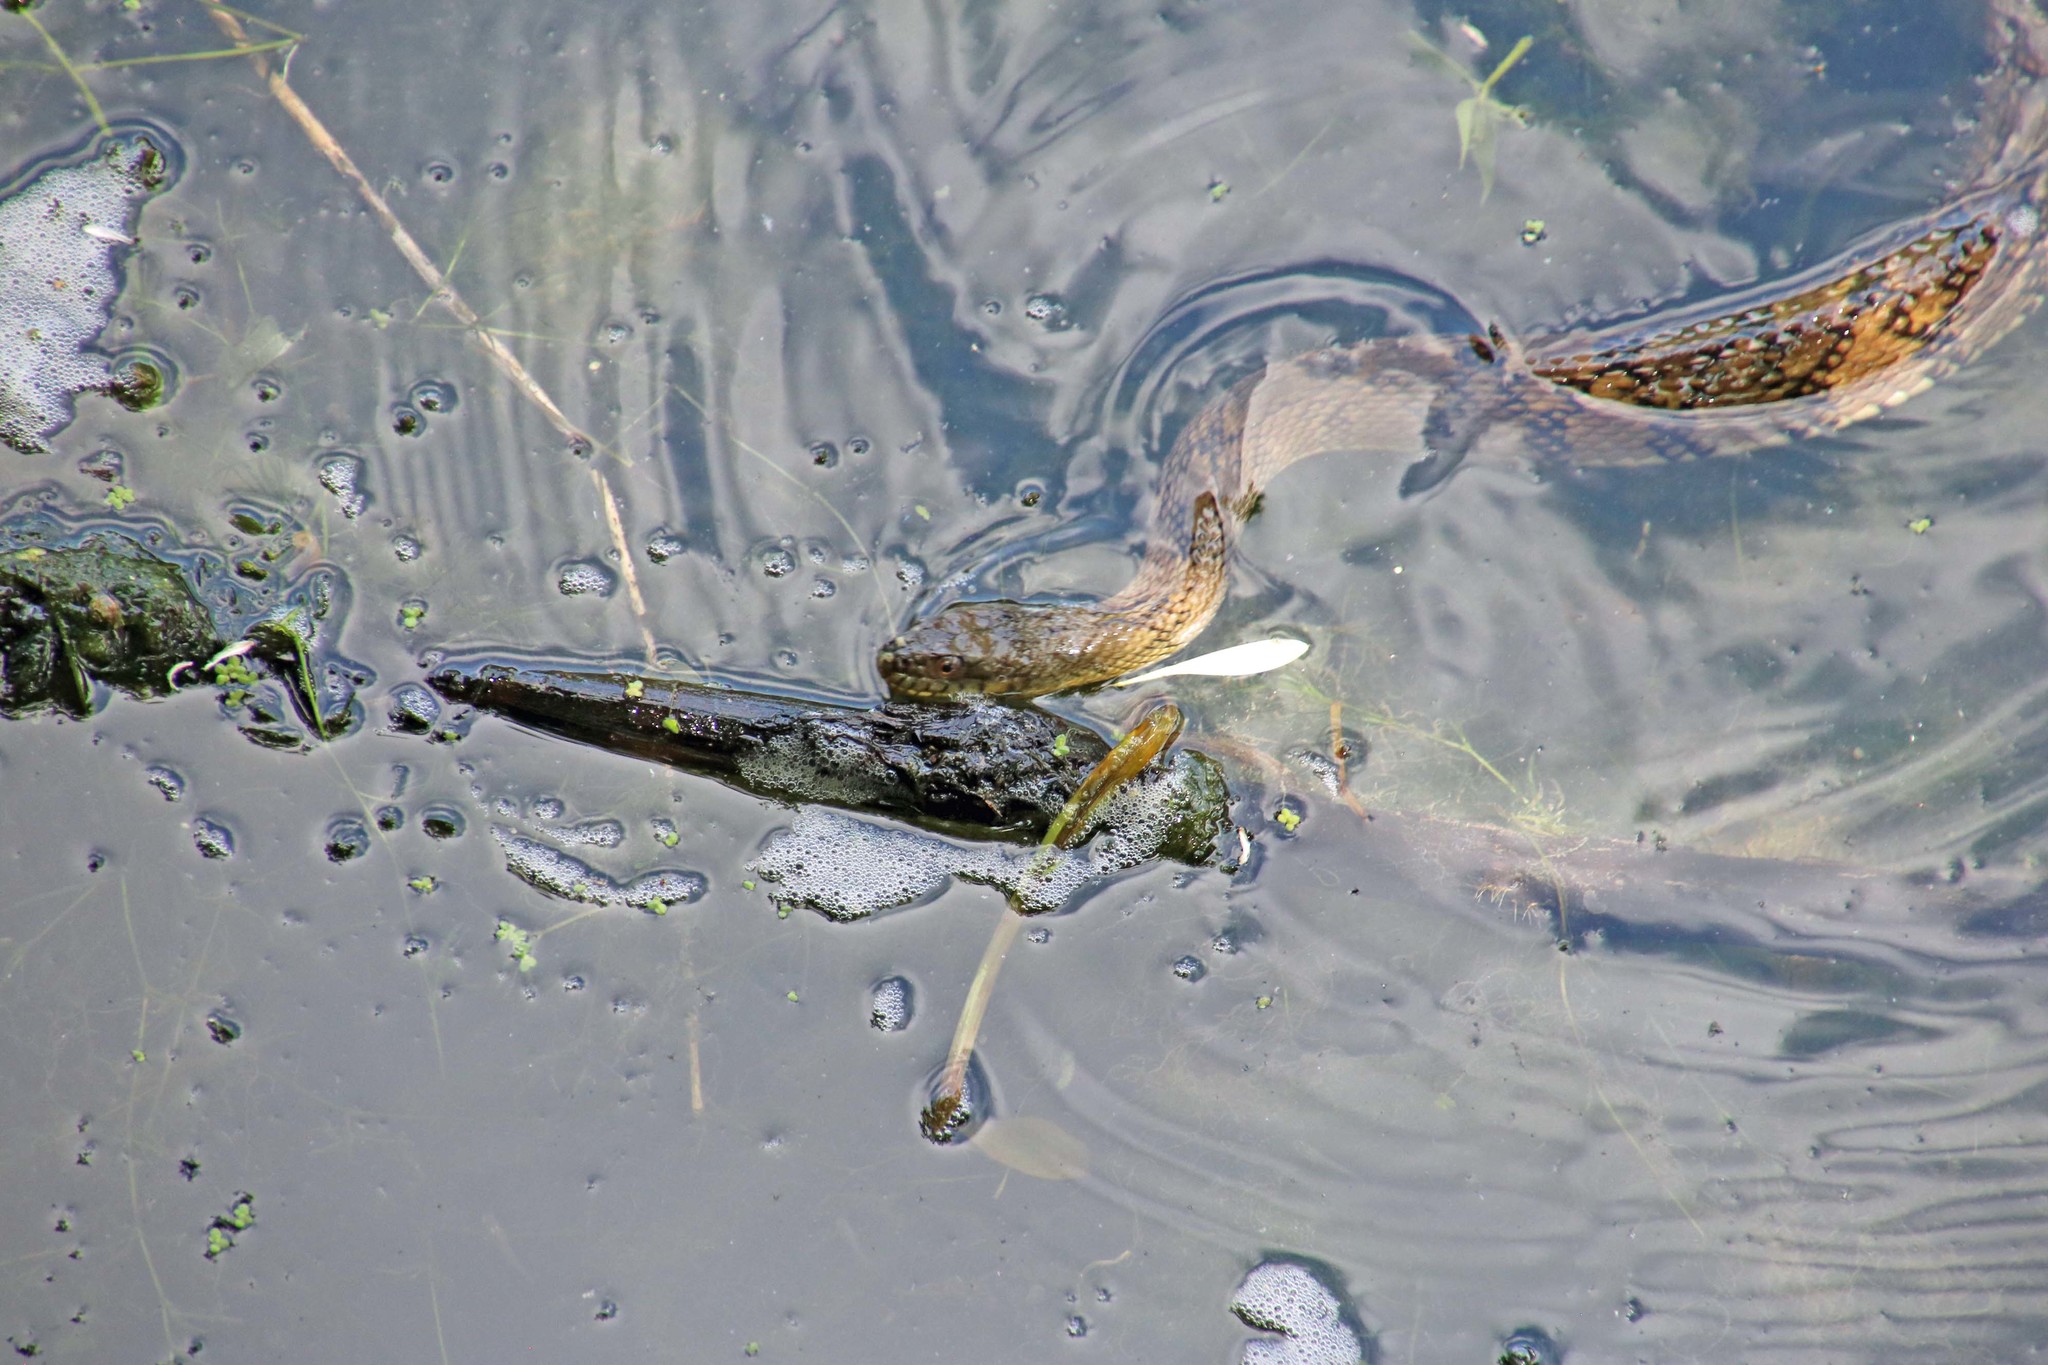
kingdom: Animalia
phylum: Chordata
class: Squamata
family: Colubridae
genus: Nerodia
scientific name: Nerodia rhombifer
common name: Diamondback water snake
